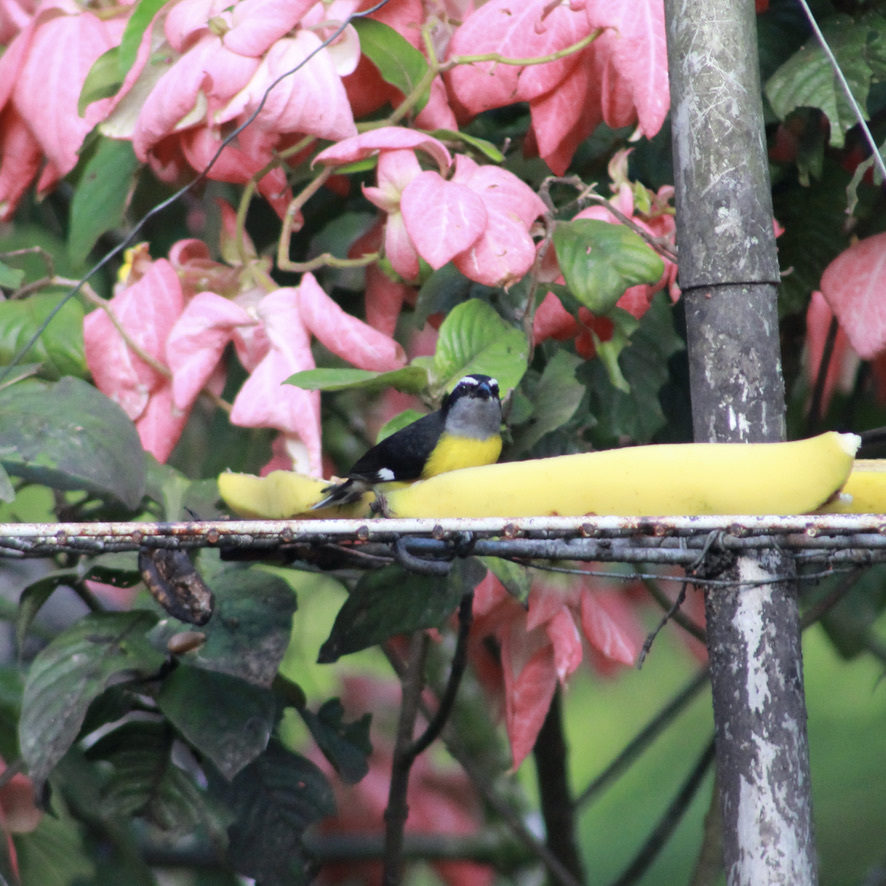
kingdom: Animalia
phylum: Chordata
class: Aves
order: Passeriformes
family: Thraupidae
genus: Coereba
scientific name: Coereba flaveola
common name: Bananaquit
